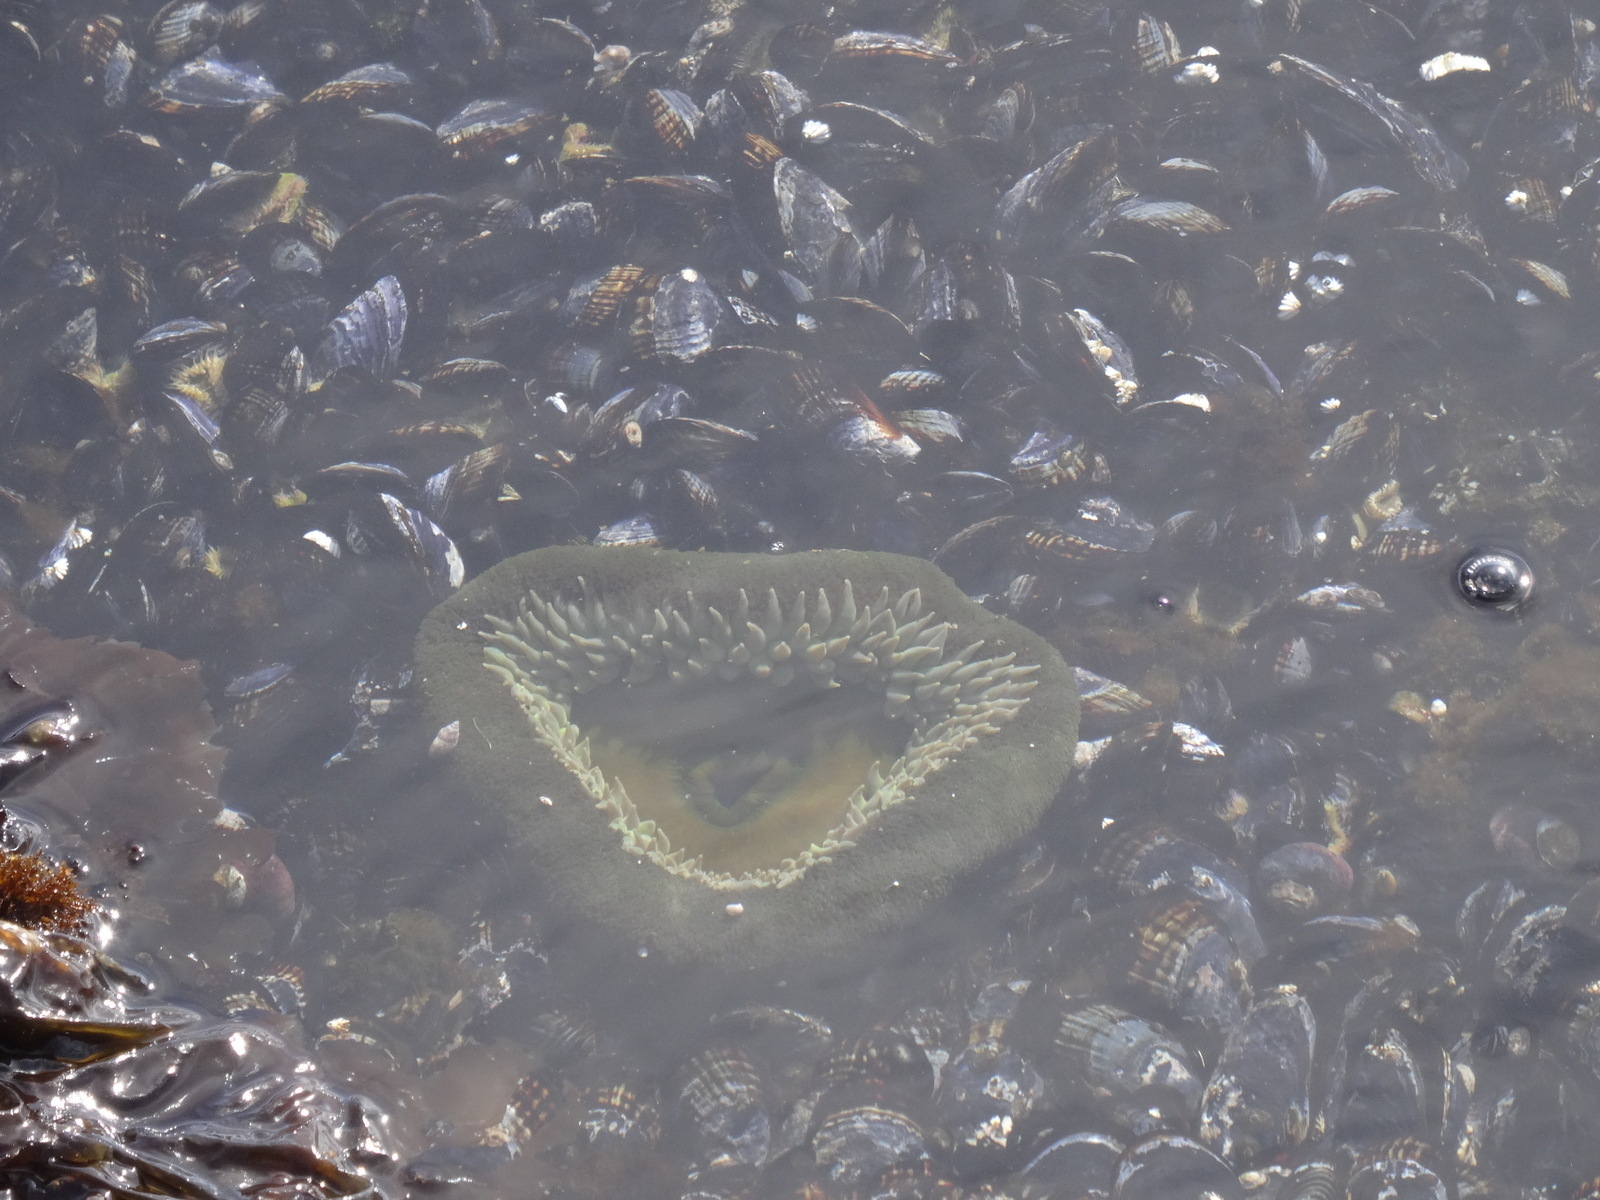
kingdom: Animalia
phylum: Cnidaria
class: Anthozoa
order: Actiniaria
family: Actiniidae
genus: Anthopleura
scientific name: Anthopleura xanthogrammica
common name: Giant green anemone
